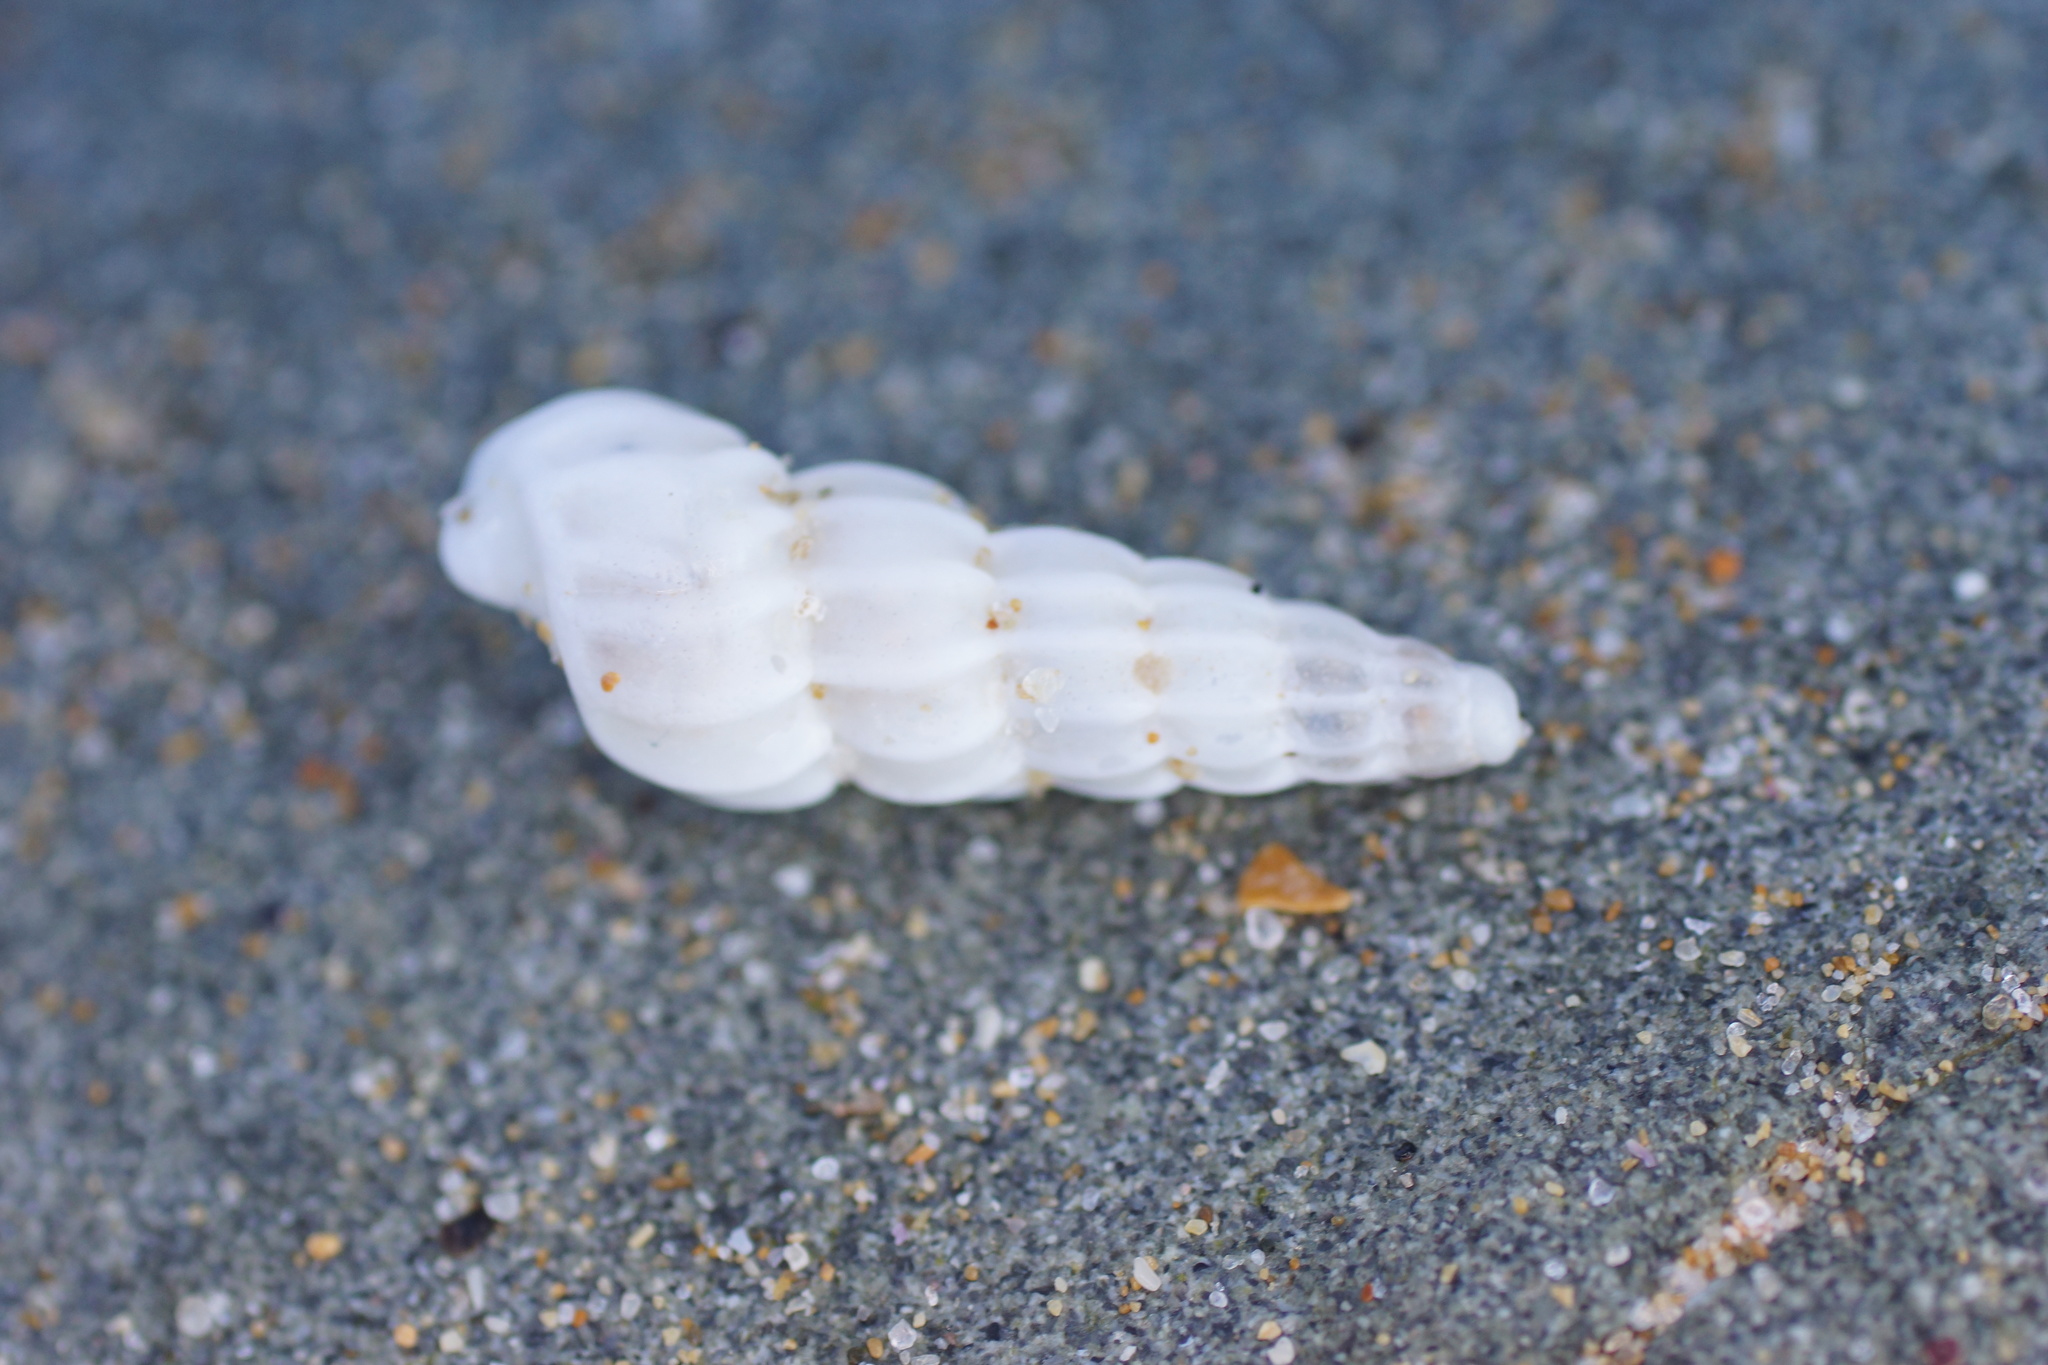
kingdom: Animalia
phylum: Mollusca
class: Gastropoda
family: Epitoniidae
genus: Opalia
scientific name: Opalia australis
